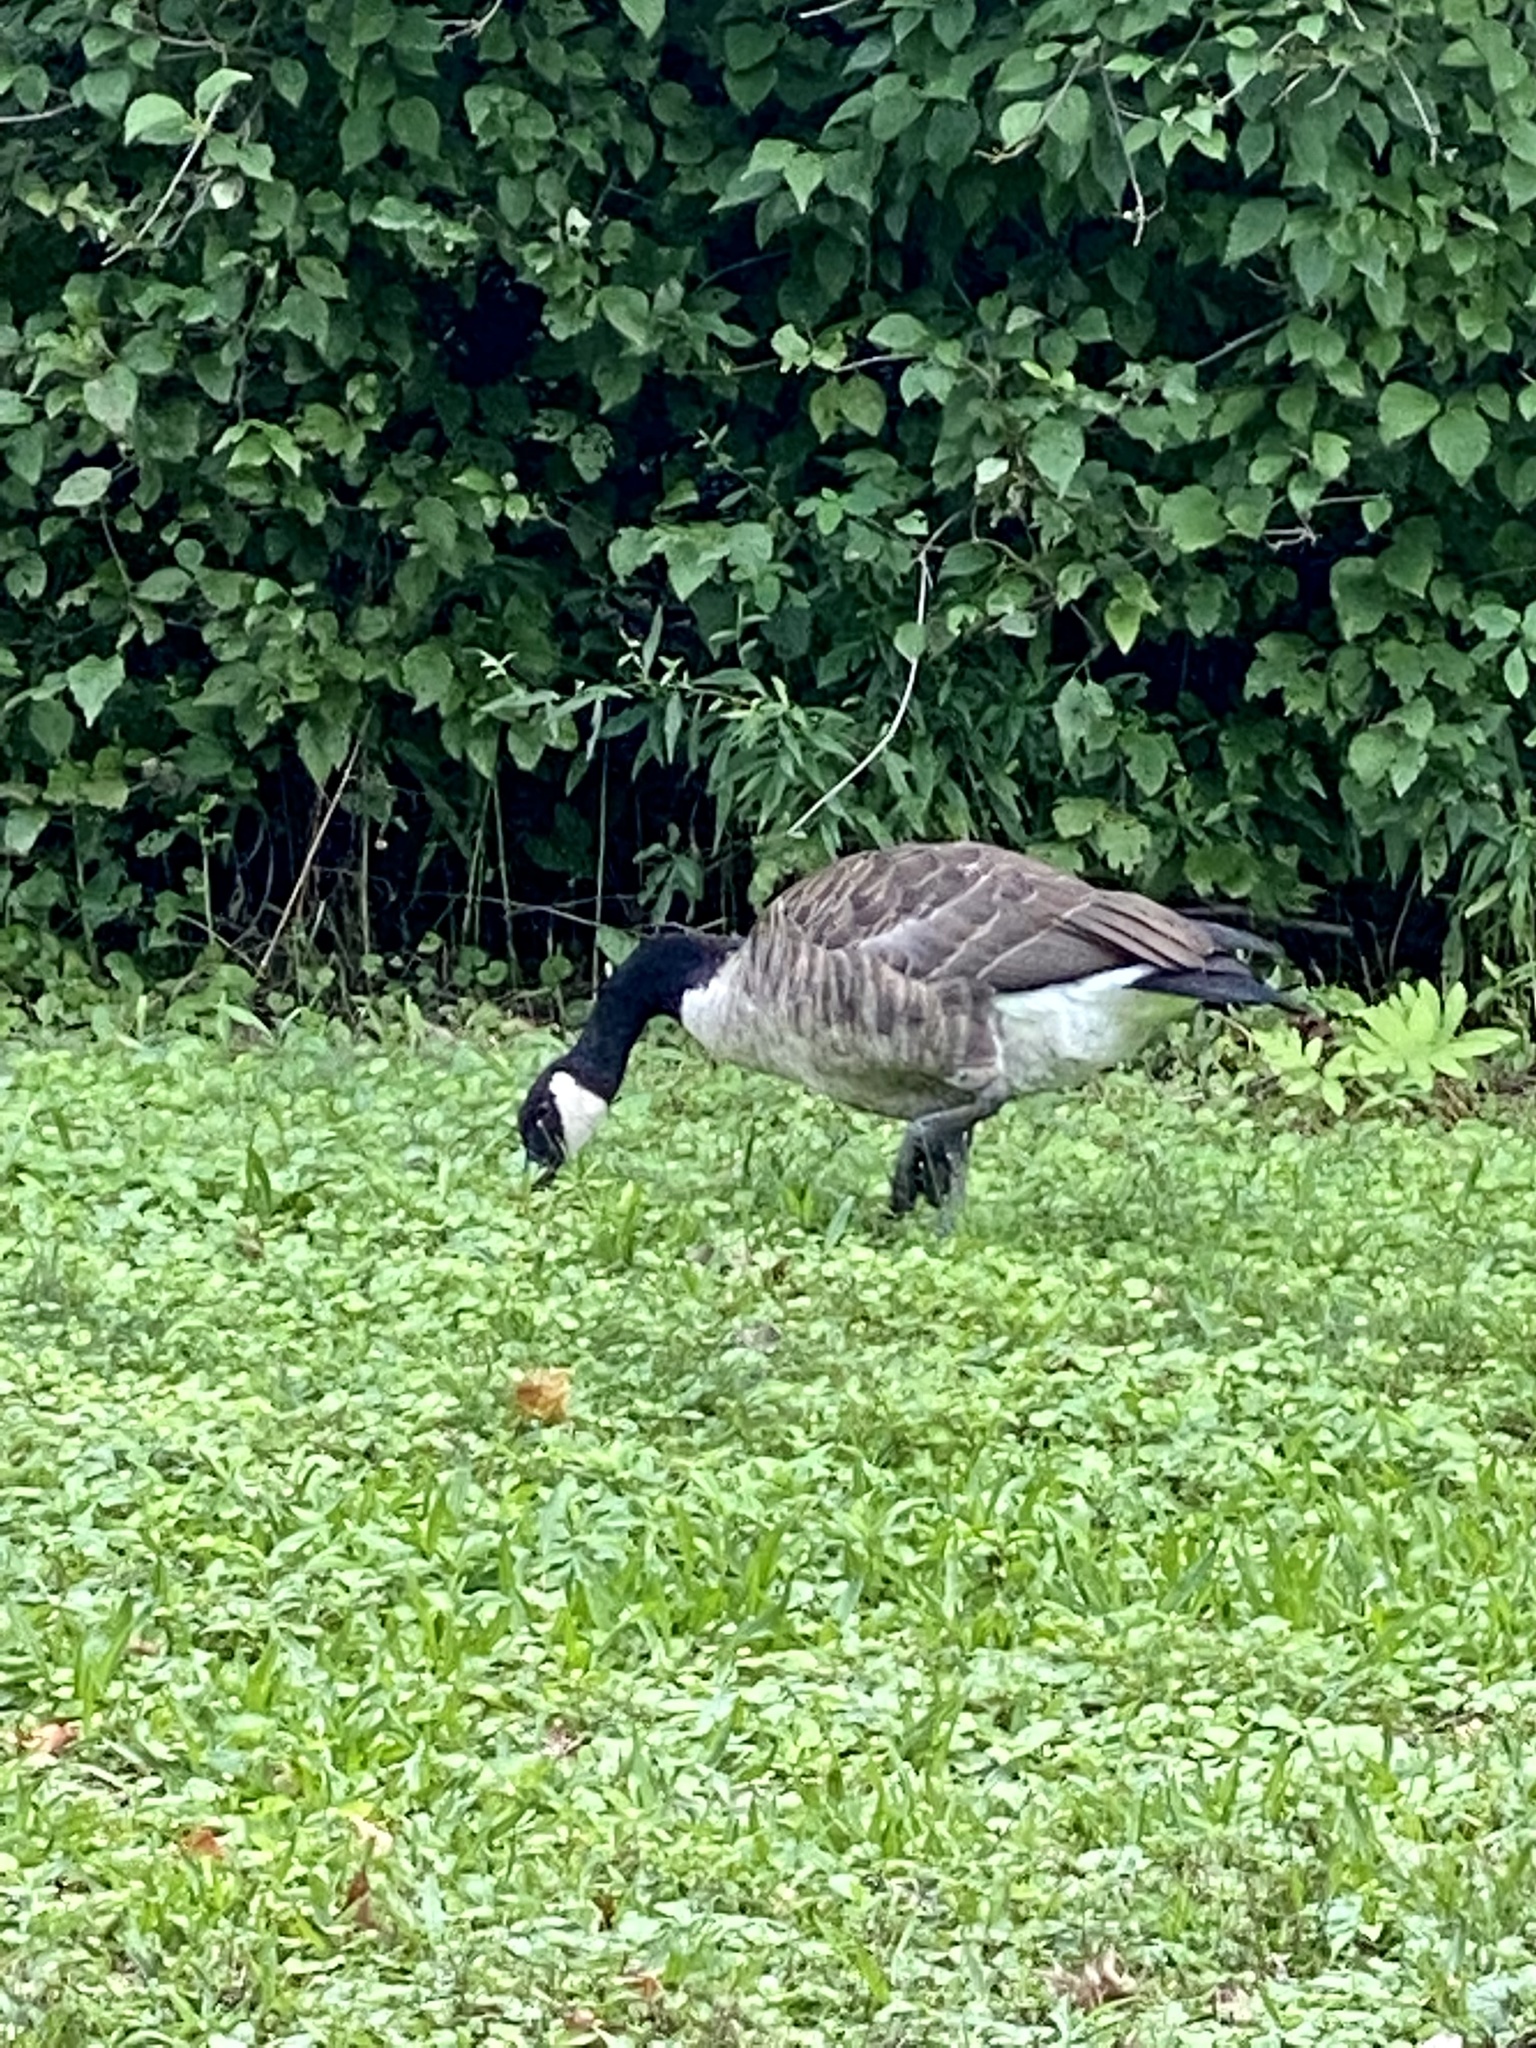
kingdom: Animalia
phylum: Chordata
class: Aves
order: Anseriformes
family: Anatidae
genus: Branta
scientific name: Branta canadensis
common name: Canada goose
